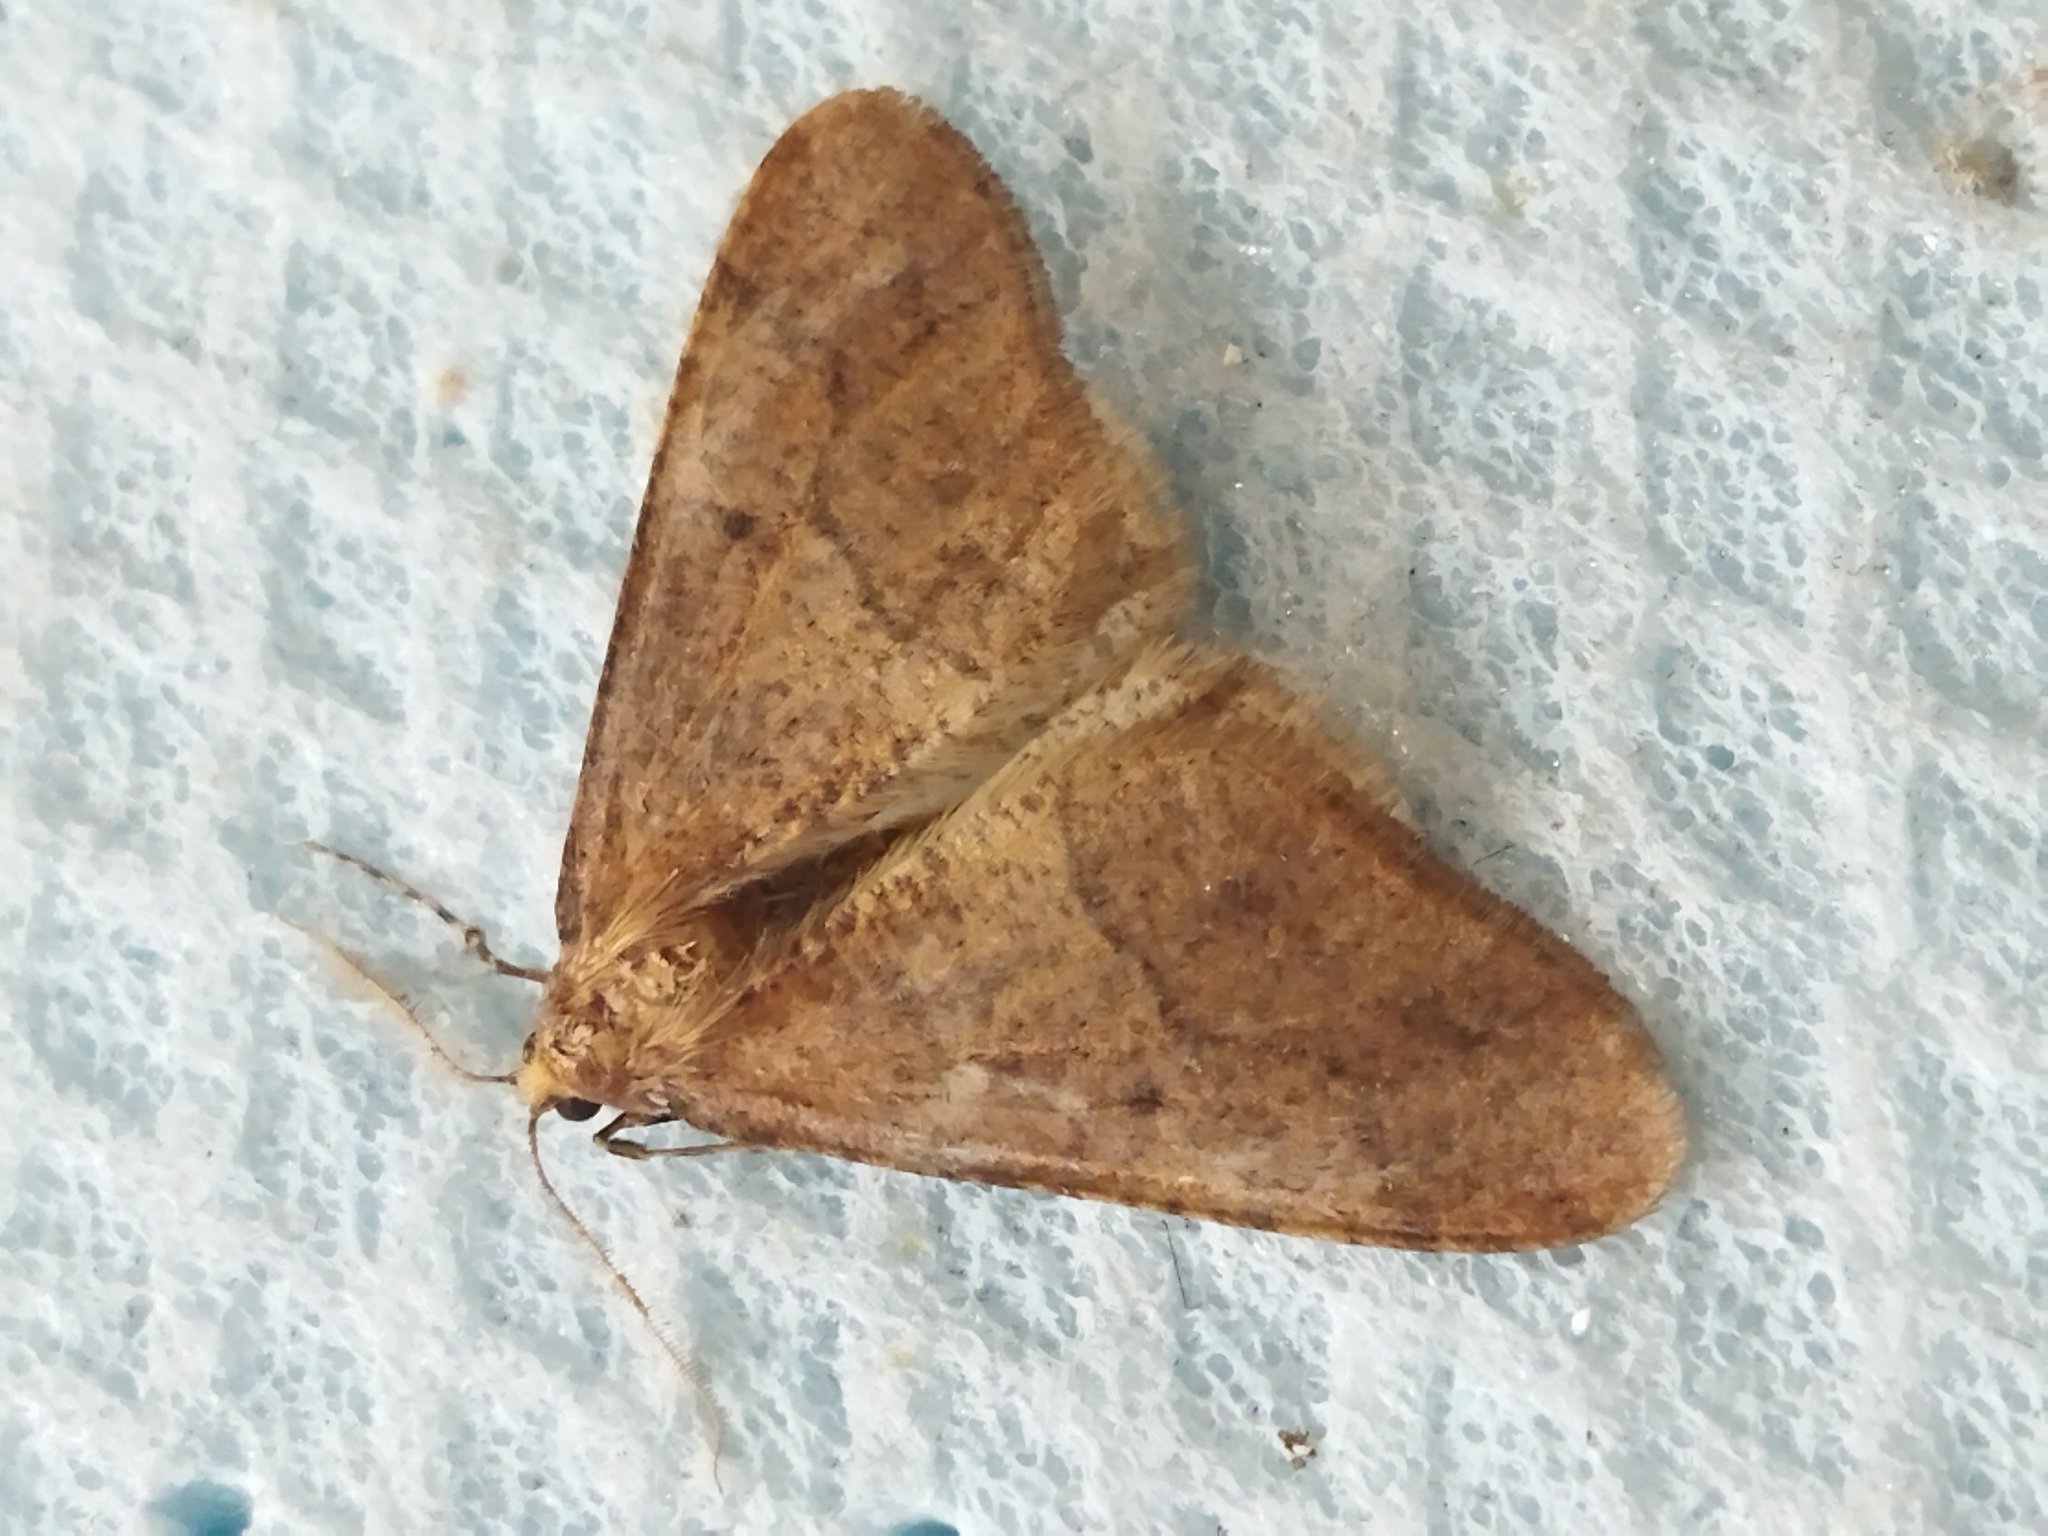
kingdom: Animalia
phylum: Arthropoda
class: Insecta
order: Lepidoptera
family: Geometridae
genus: Erannis
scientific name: Erannis defoliaria
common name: Mottled umber
